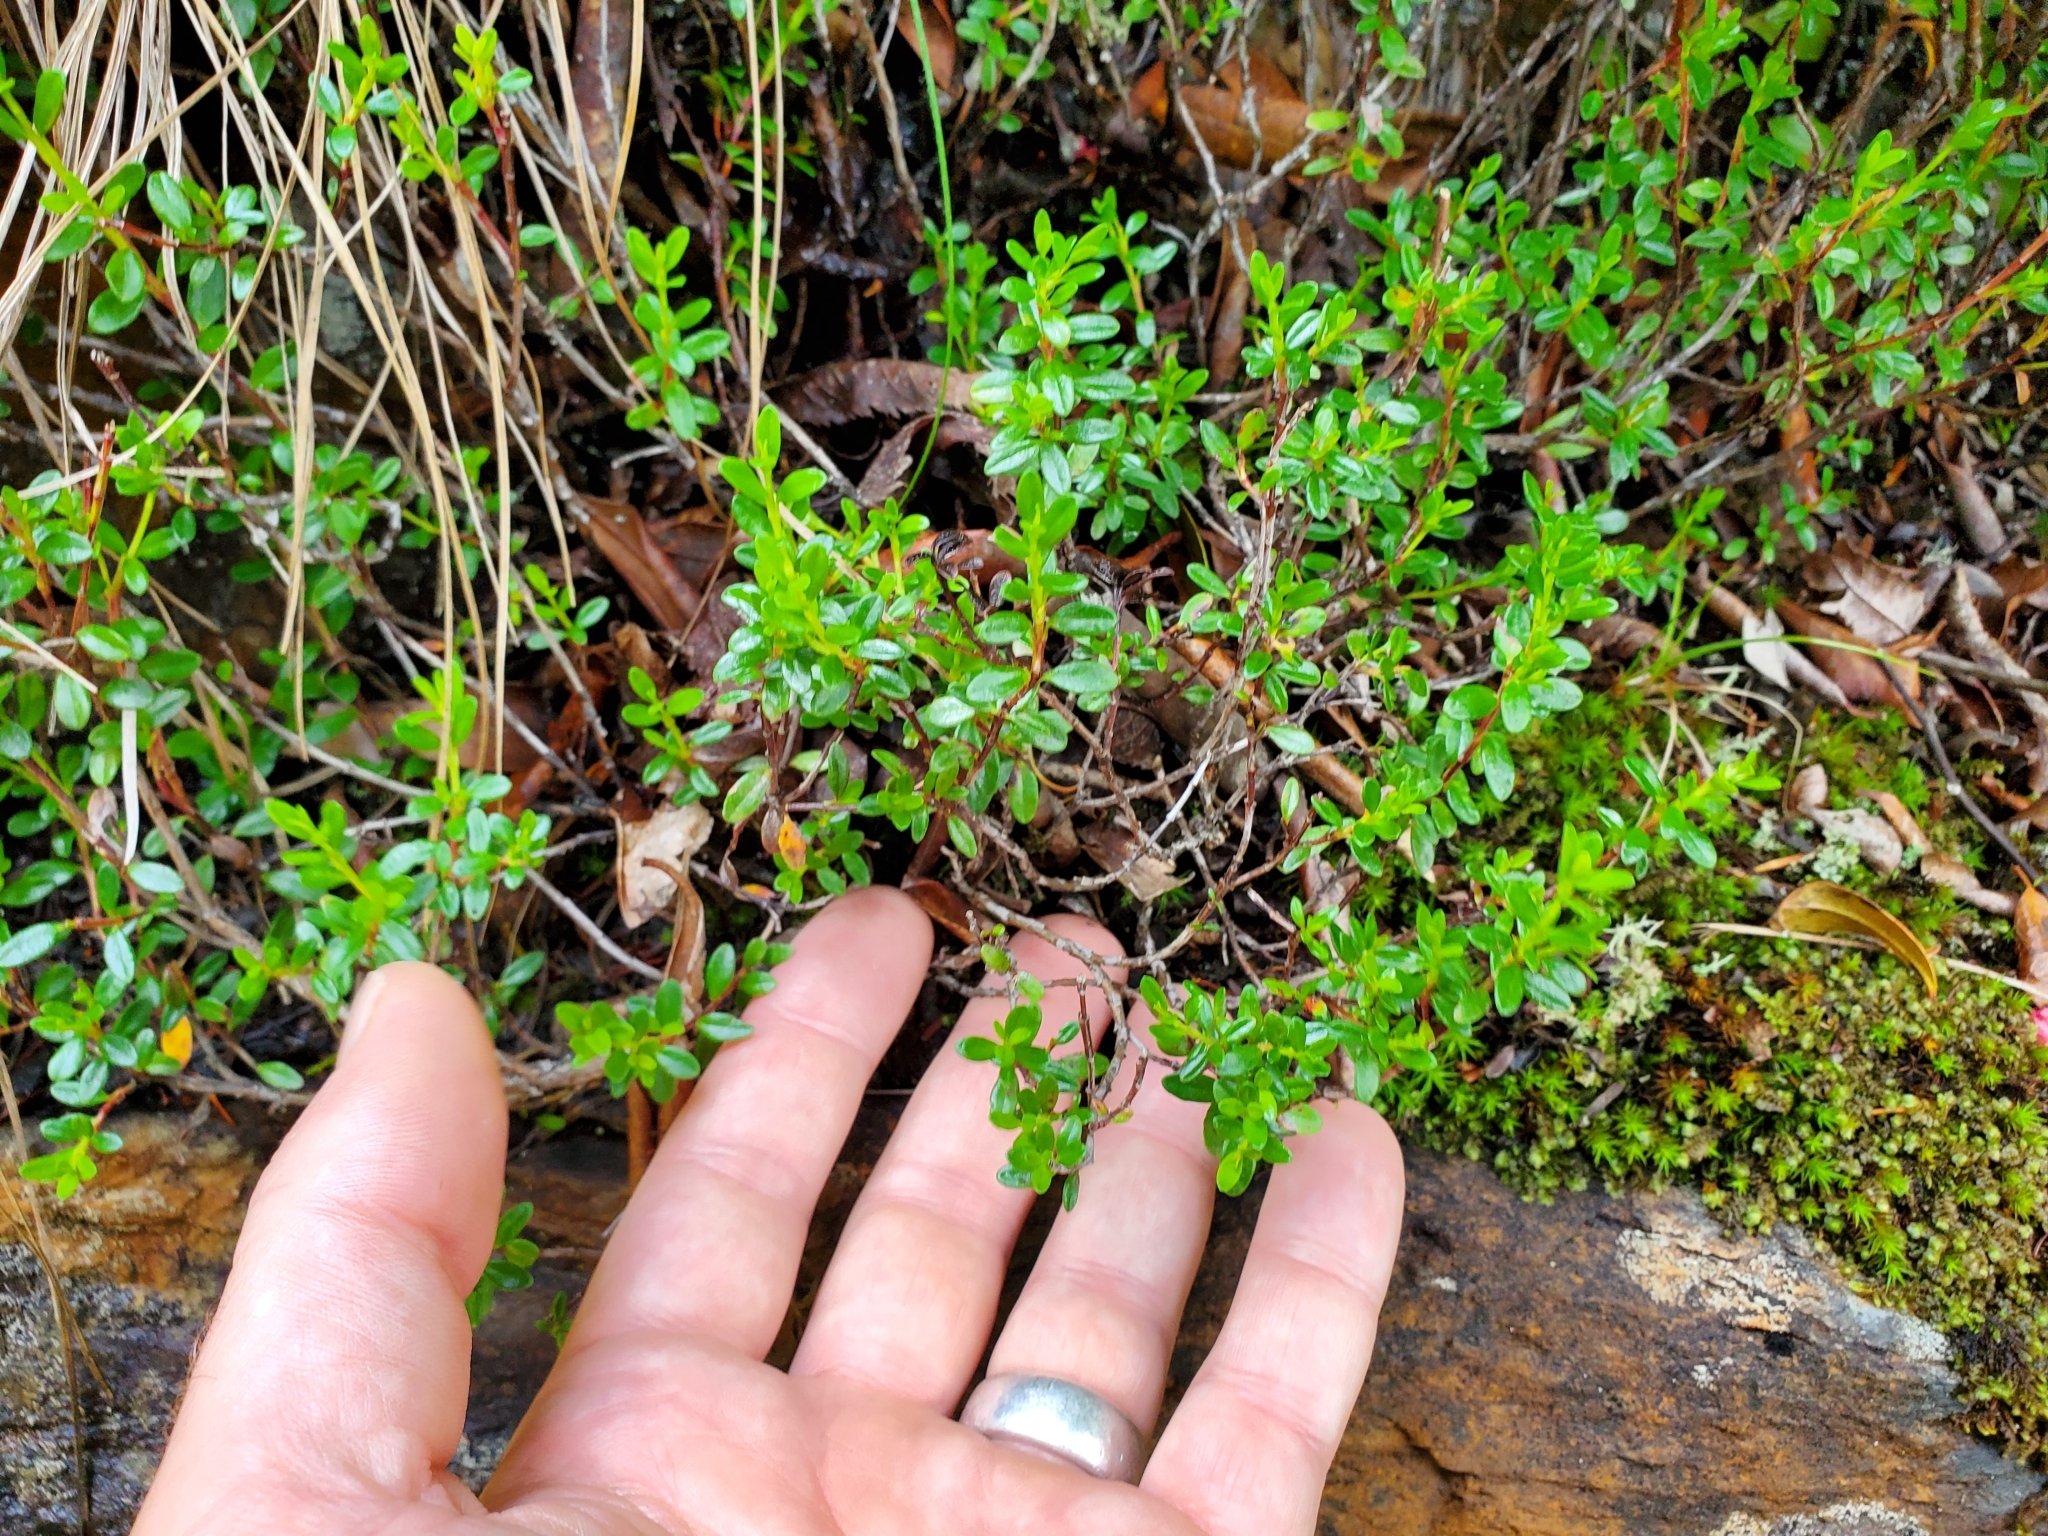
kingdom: Plantae
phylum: Tracheophyta
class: Magnoliopsida
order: Ericales
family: Ericaceae
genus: Kalmia
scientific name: Kalmia buxifolia
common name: Sandmyrtle
